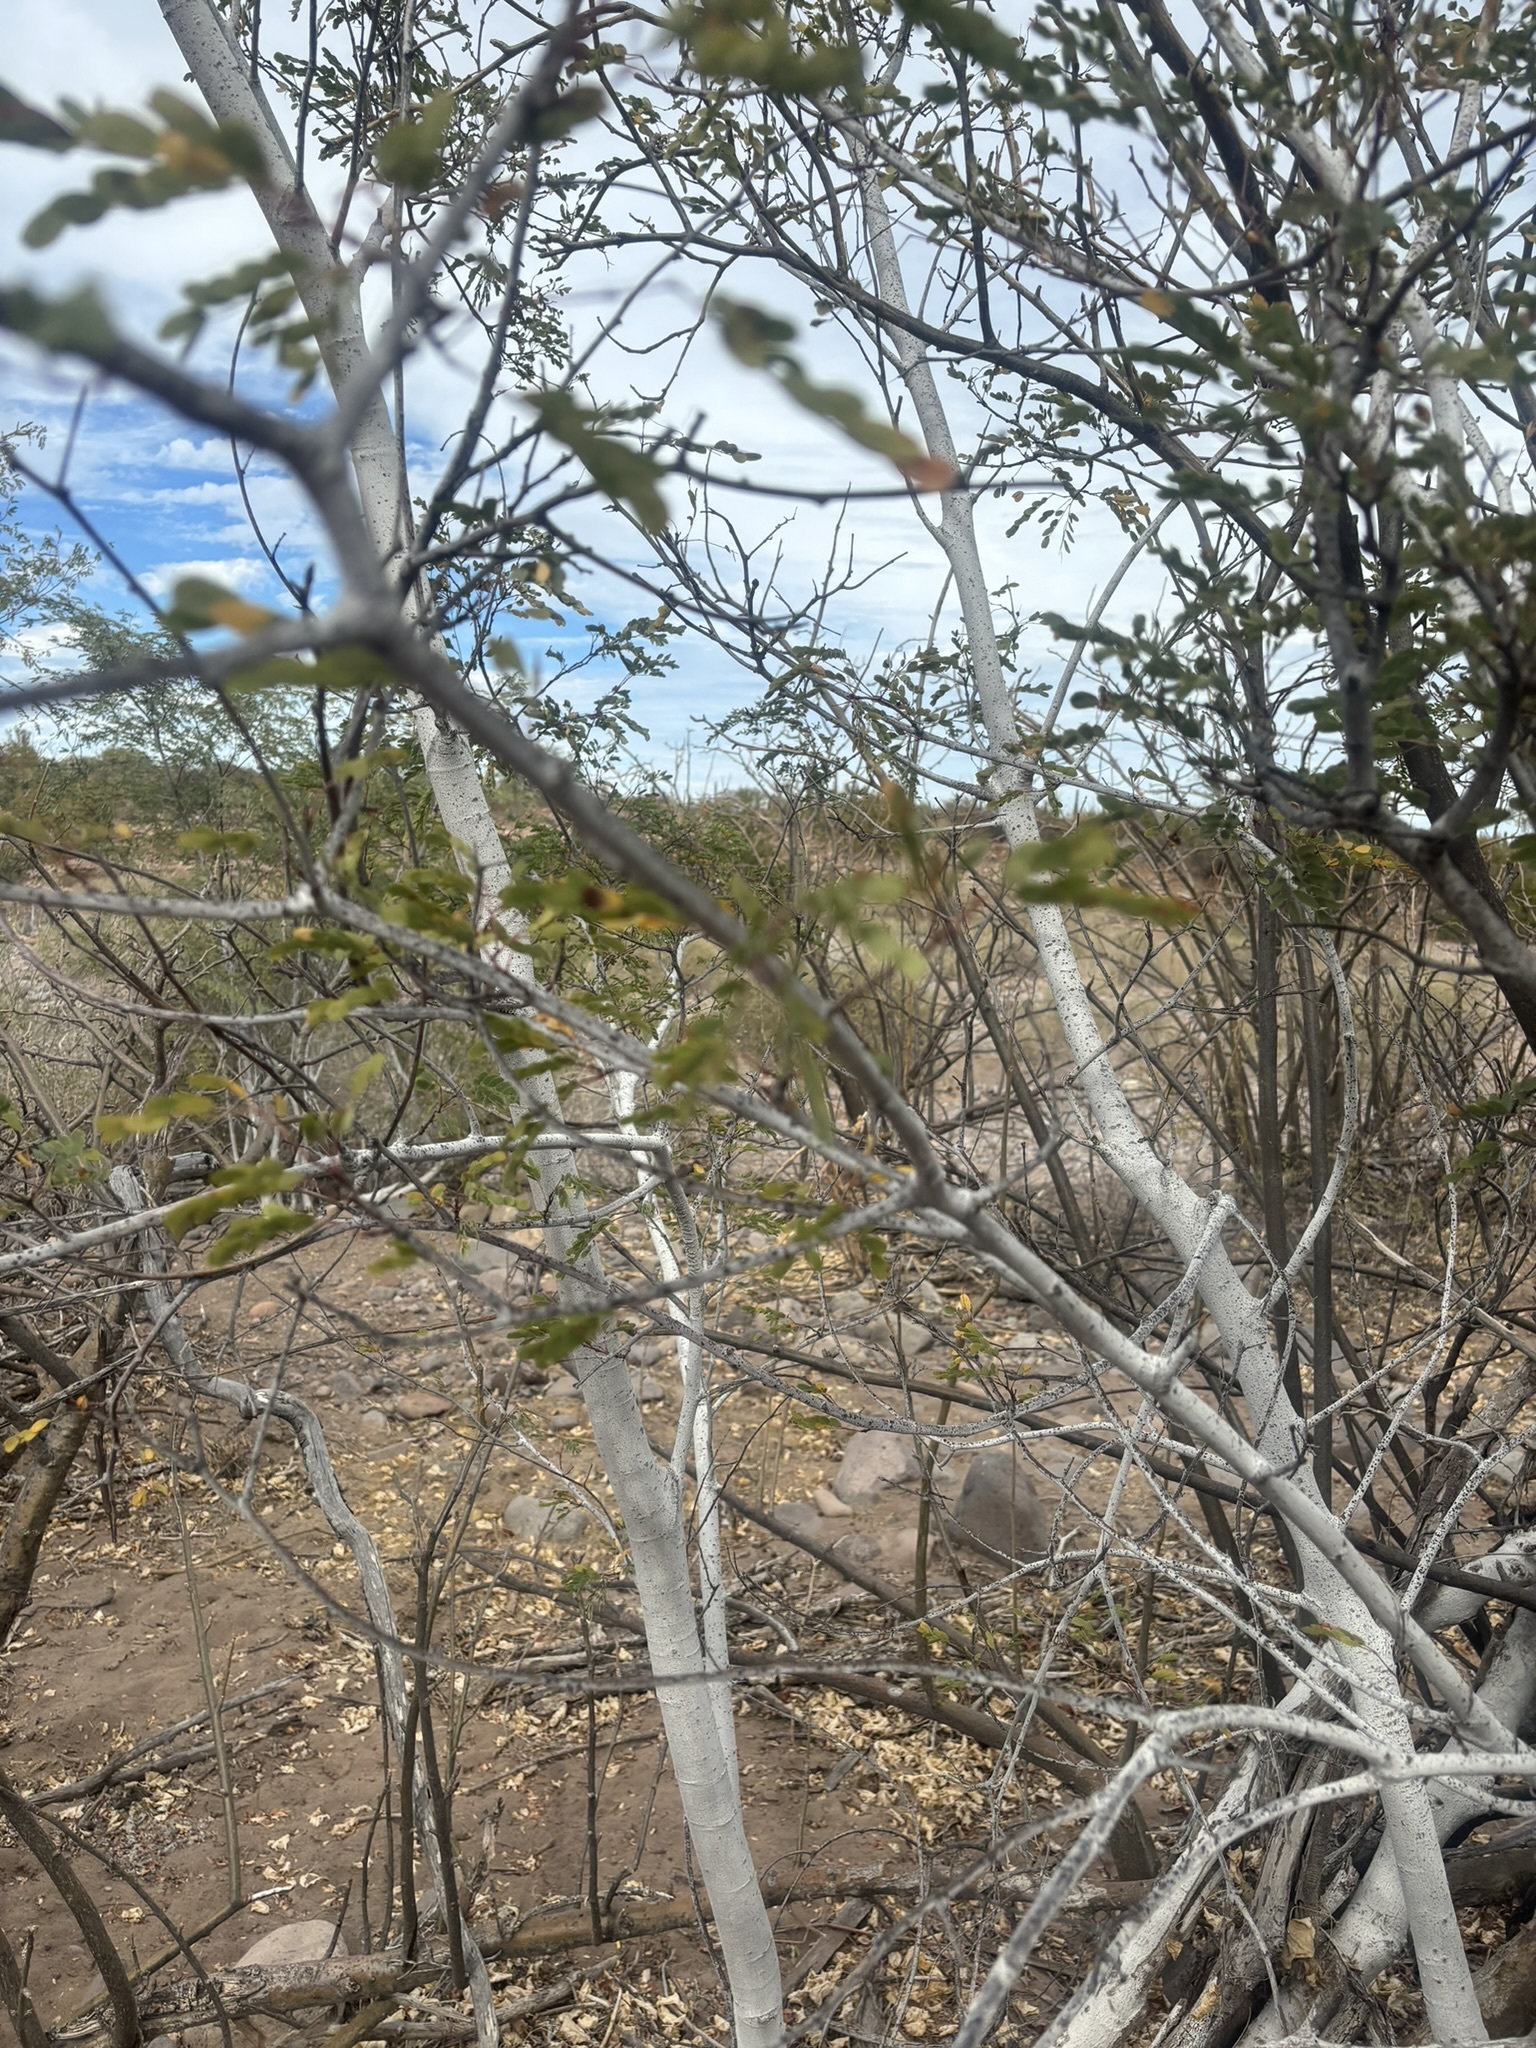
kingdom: Plantae
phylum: Tracheophyta
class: Magnoliopsida
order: Fabales
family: Fabaceae
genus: Lysiloma
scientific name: Lysiloma candidum
